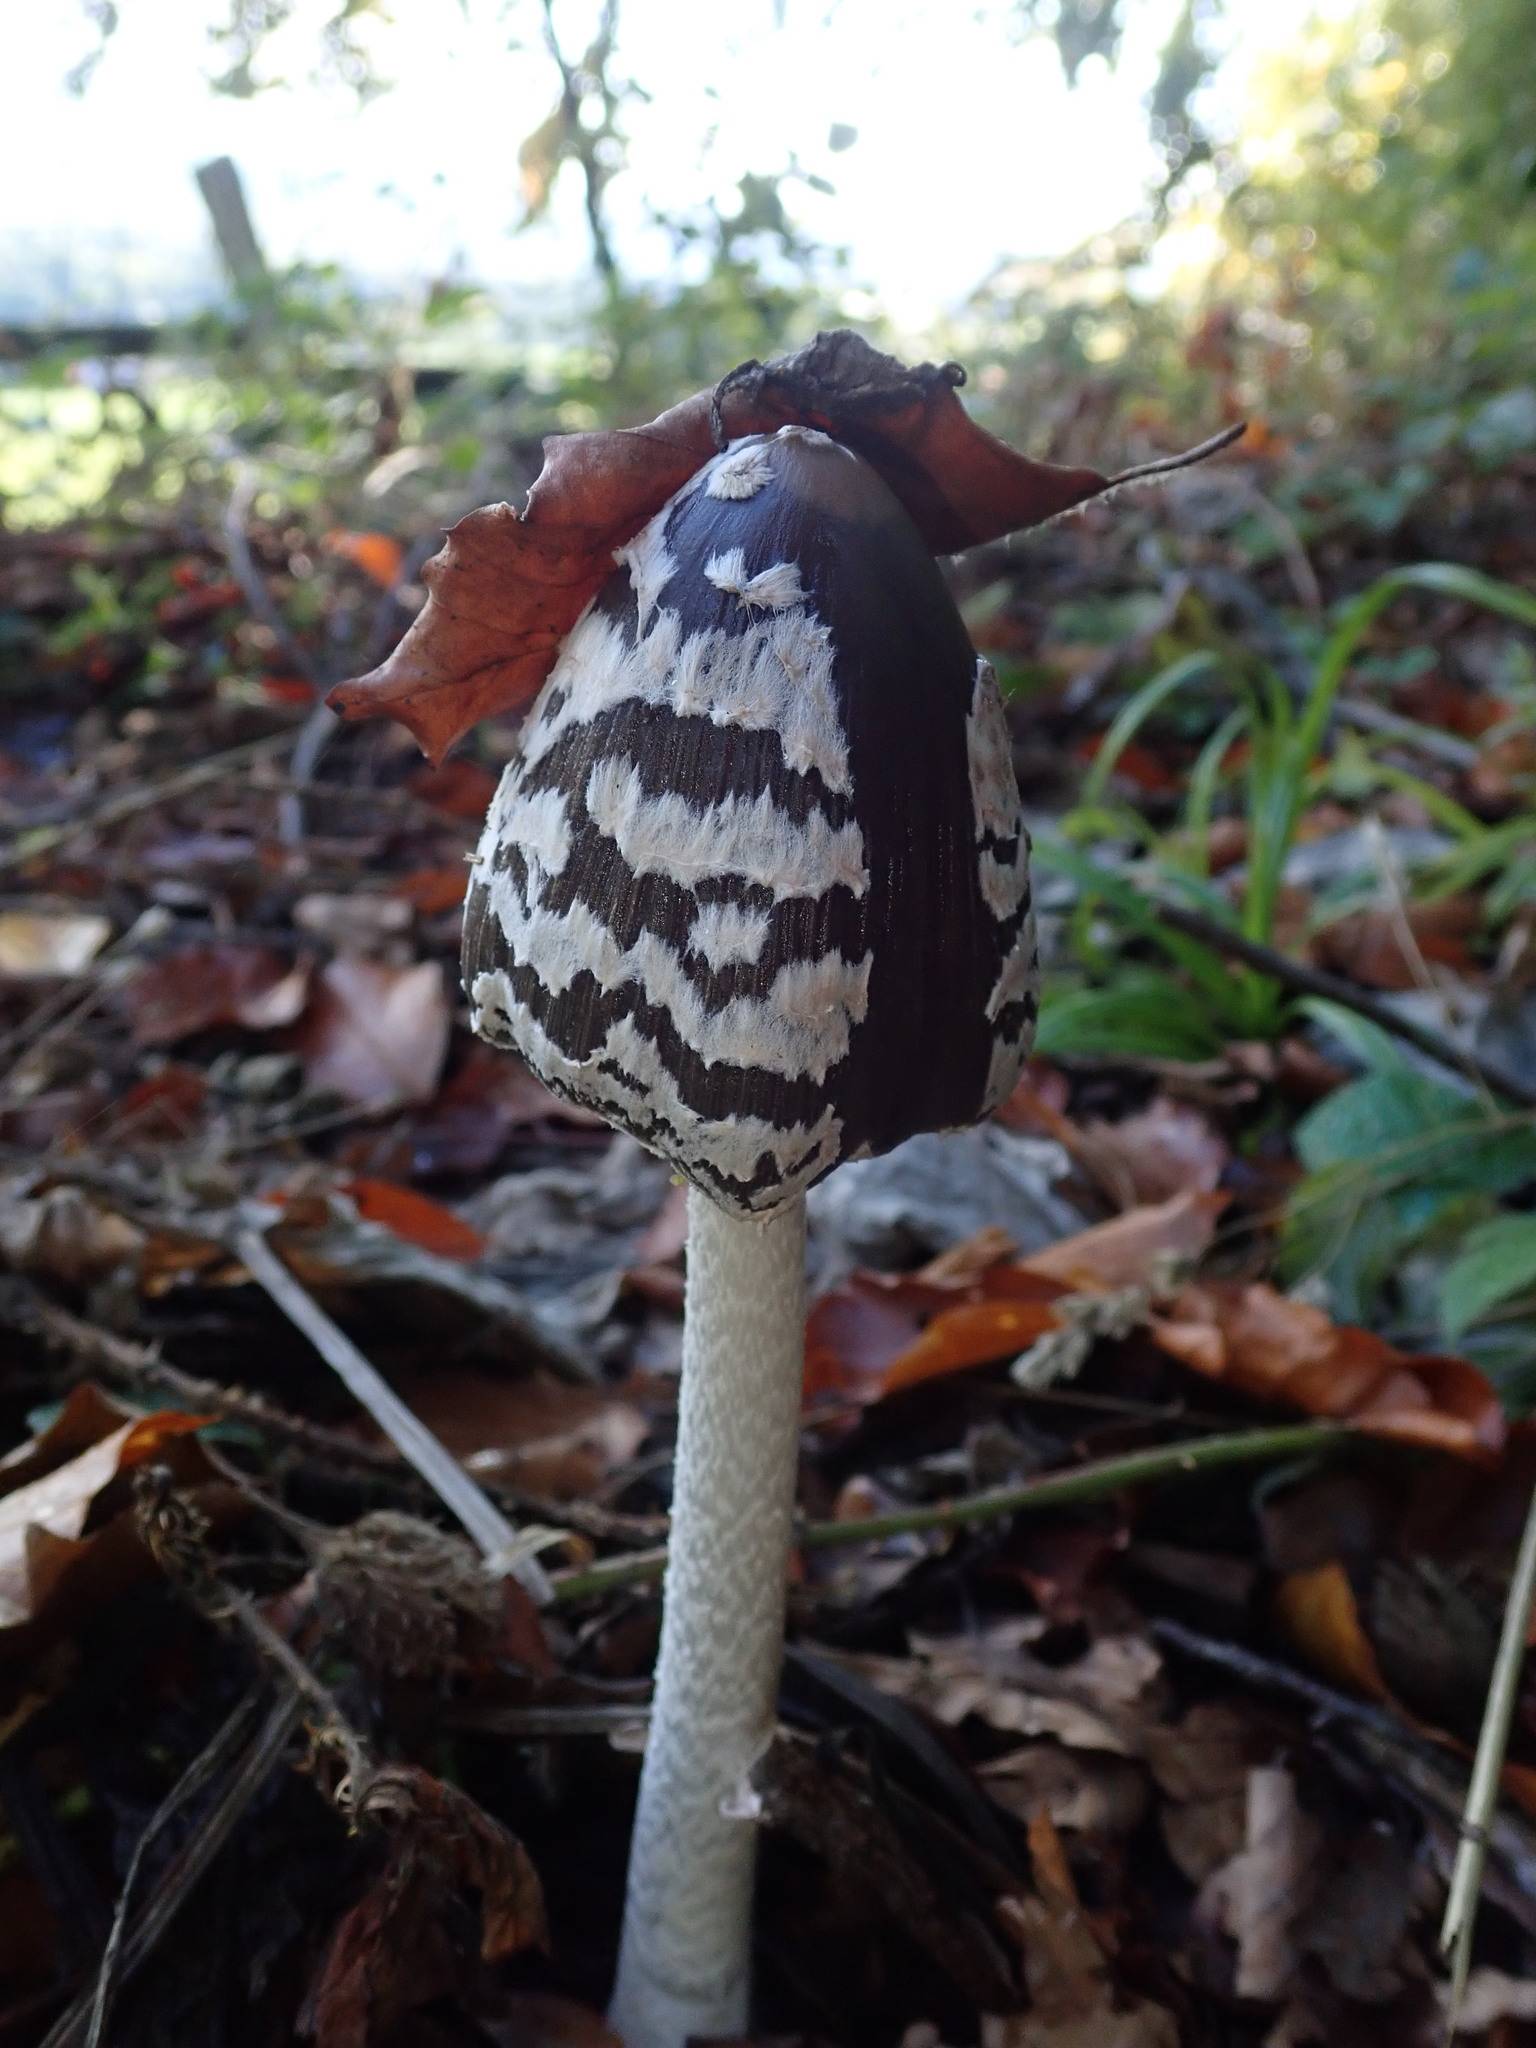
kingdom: Fungi
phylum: Basidiomycota
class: Agaricomycetes
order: Agaricales
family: Psathyrellaceae
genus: Coprinopsis
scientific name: Coprinopsis picacea
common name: Magpie inkcap
